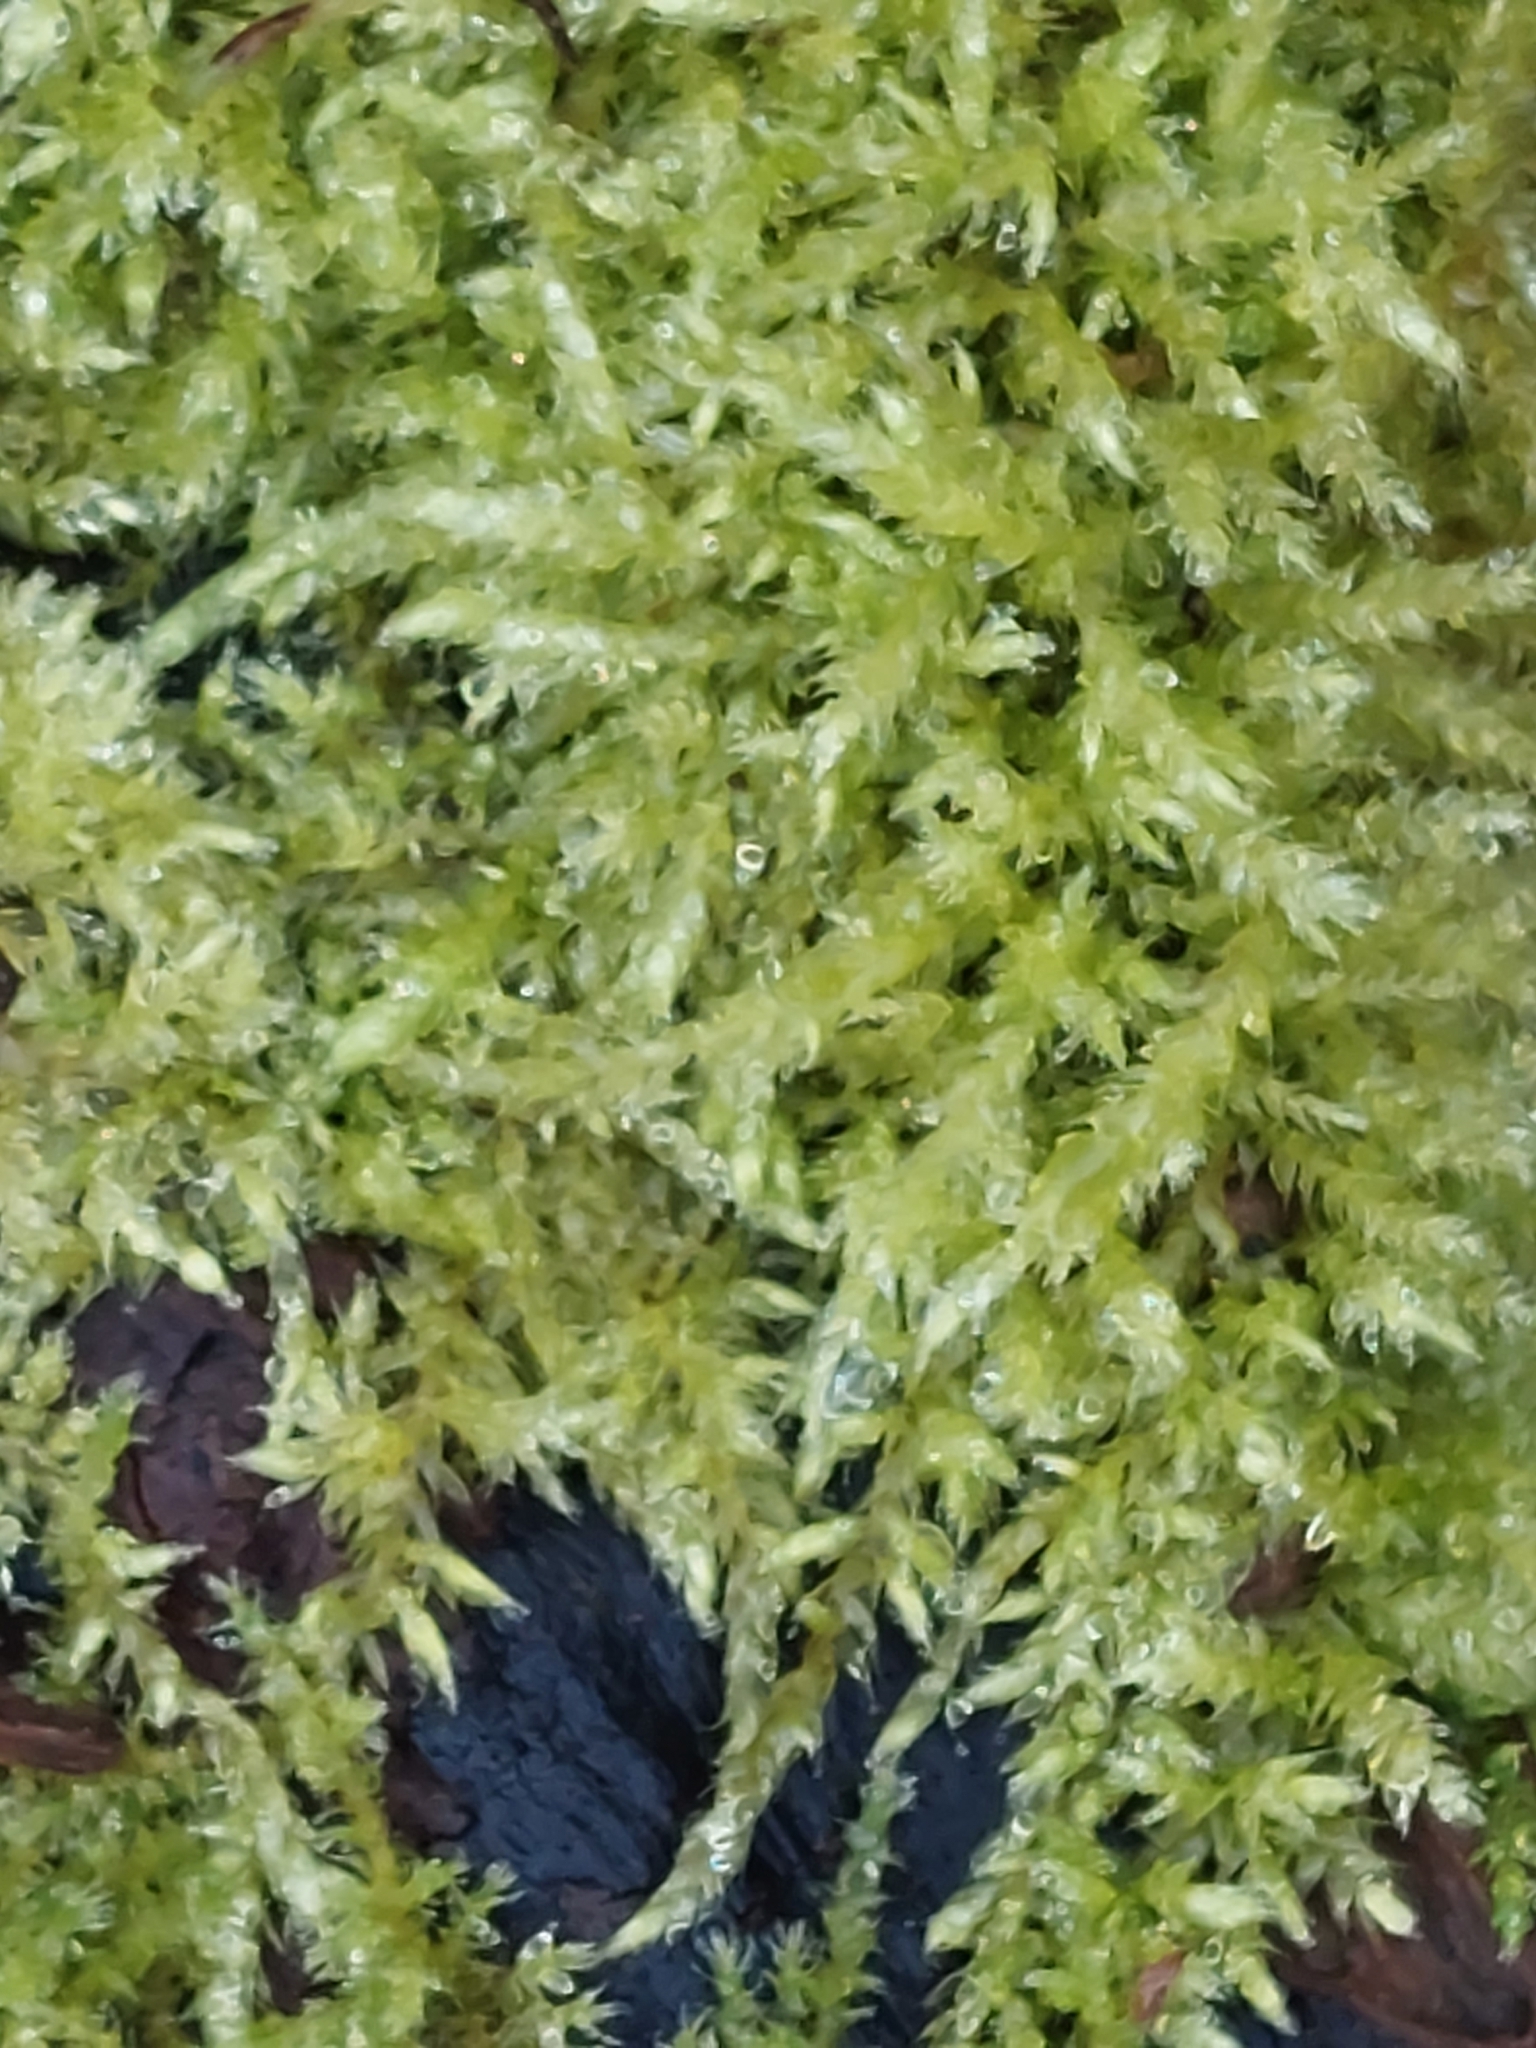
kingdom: Plantae
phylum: Bryophyta
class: Bryopsida
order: Hypnales
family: Brachytheciaceae
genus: Brachythecium
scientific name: Brachythecium rutabulum
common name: Rough-stalked feather-moss
